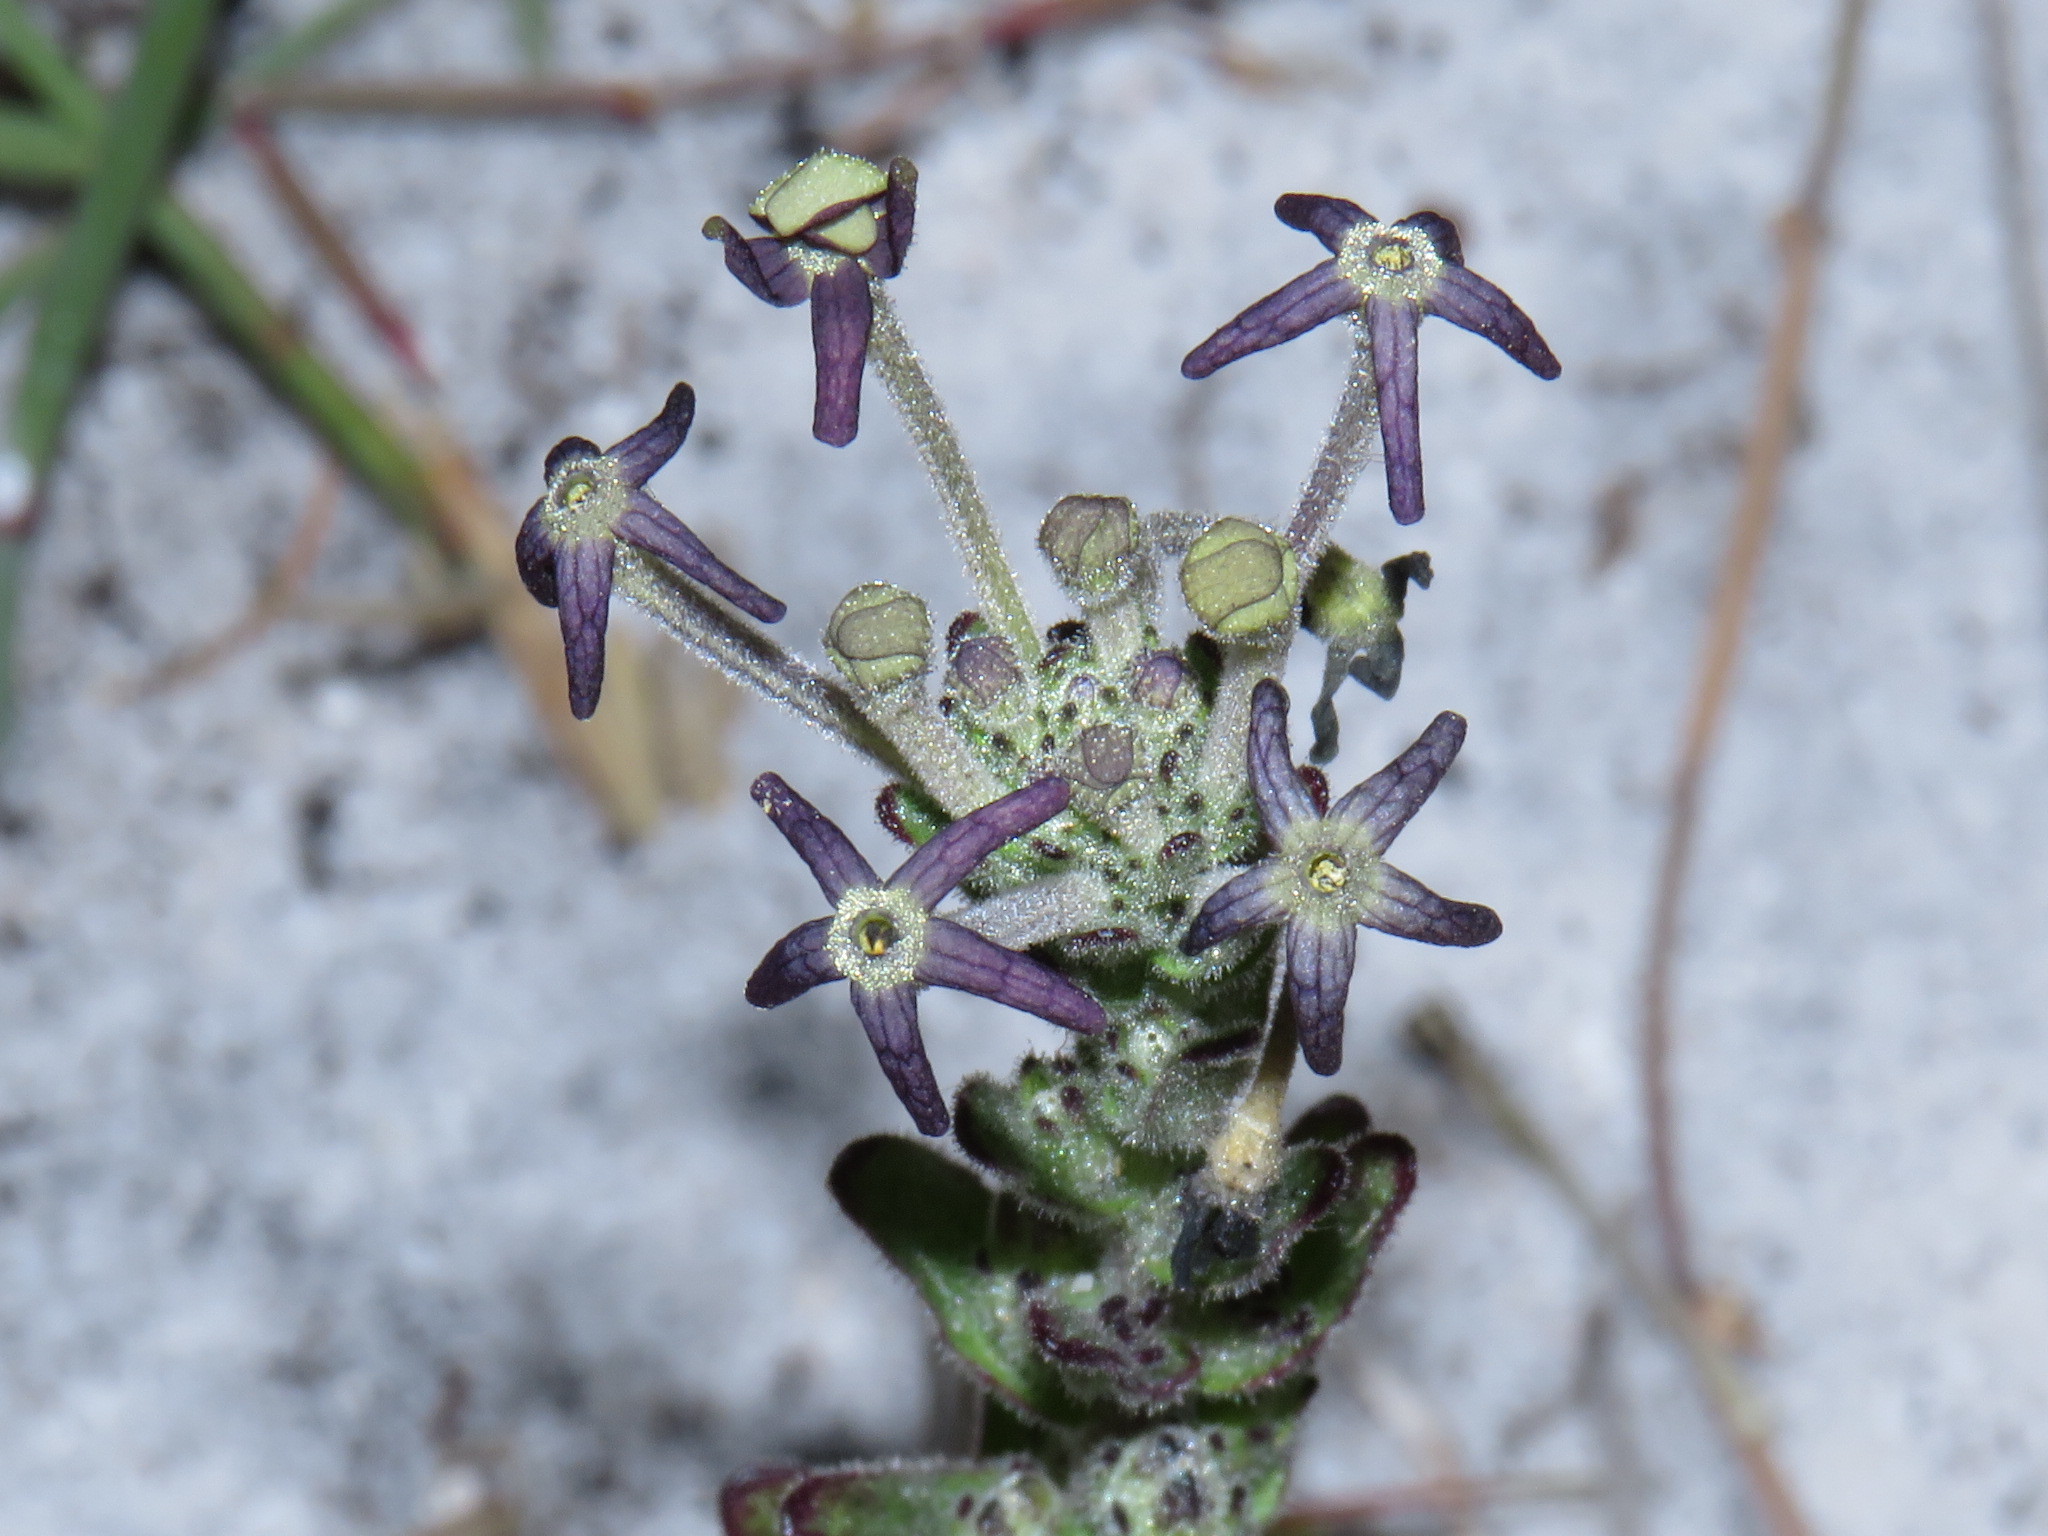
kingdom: Plantae
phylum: Tracheophyta
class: Magnoliopsida
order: Lamiales
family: Scrophulariaceae
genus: Lyperia
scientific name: Lyperia lychnidea
